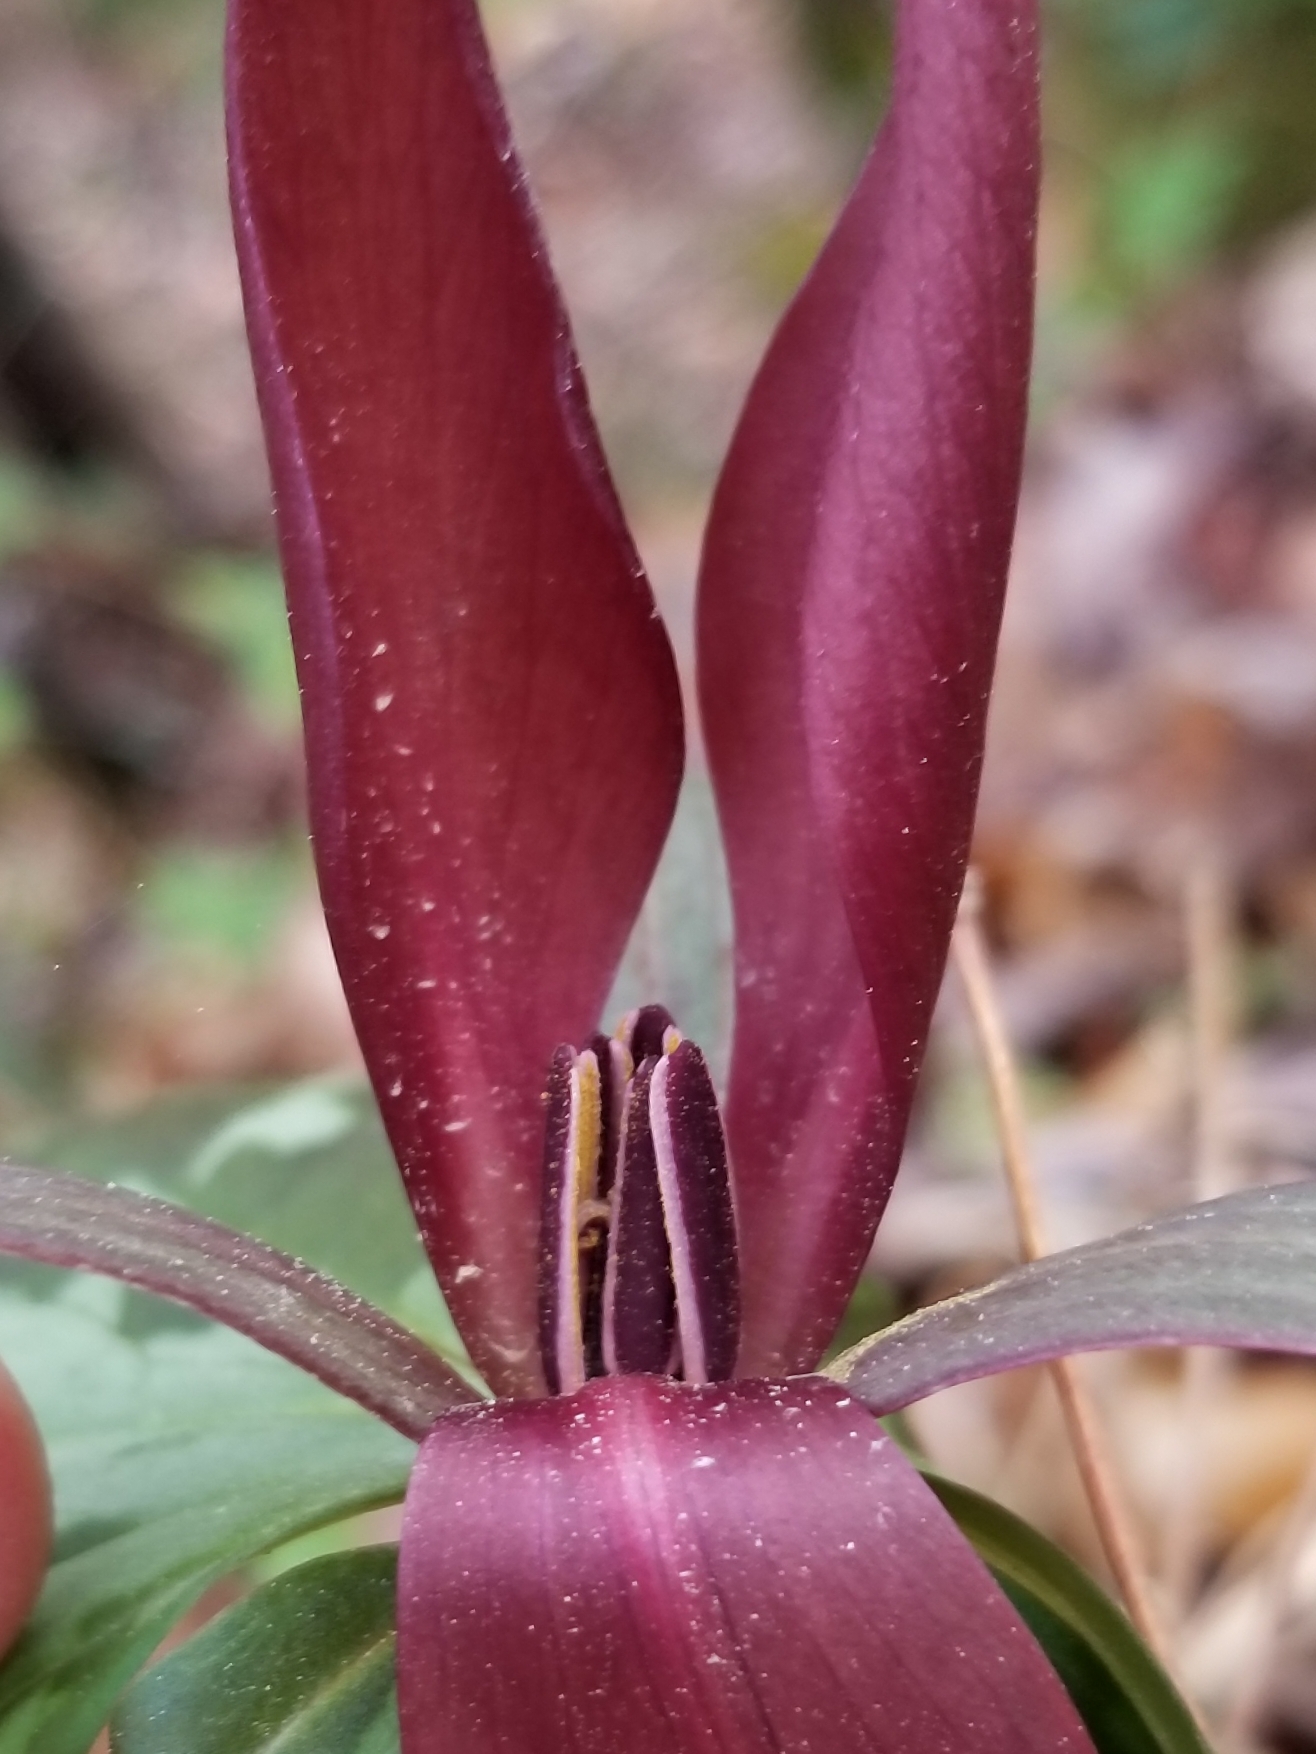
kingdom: Plantae
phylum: Tracheophyta
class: Liliopsida
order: Liliales
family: Melanthiaceae
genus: Trillium
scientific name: Trillium cuneatum
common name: Cuneate trillium
